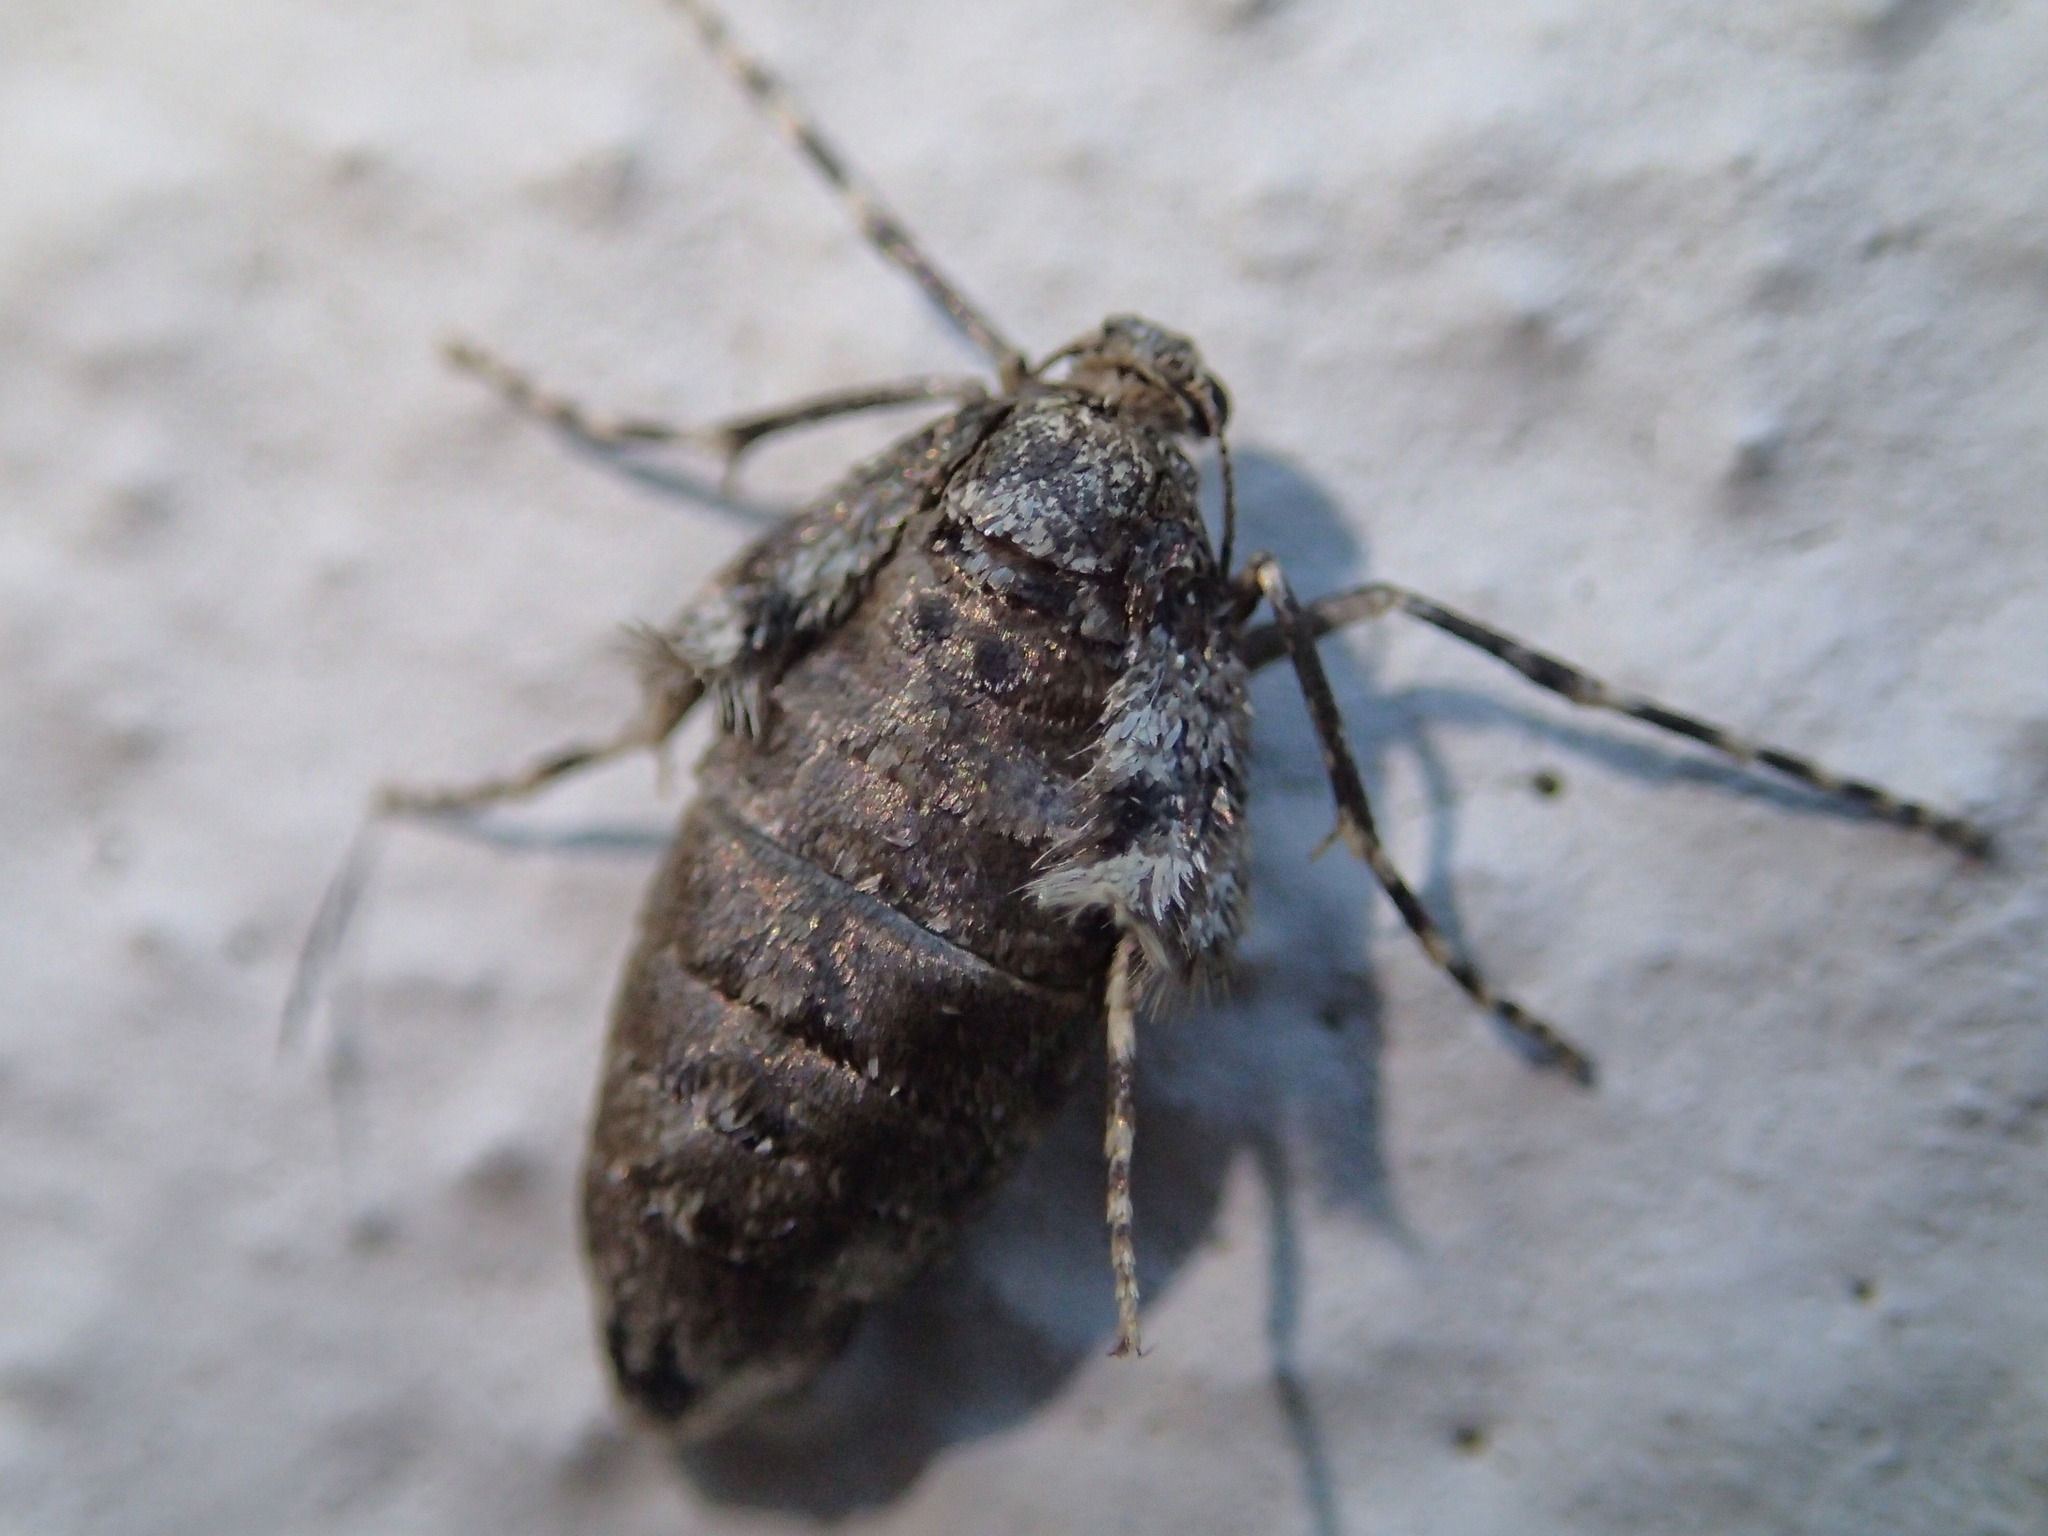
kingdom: Animalia
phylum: Arthropoda
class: Insecta
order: Lepidoptera
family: Geometridae
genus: Operophtera
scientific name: Operophtera brumata
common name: Winter moth
